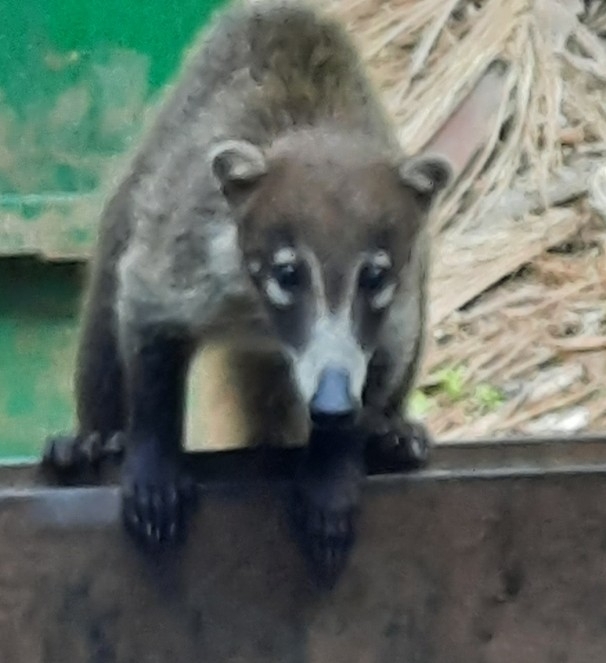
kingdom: Animalia
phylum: Chordata
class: Mammalia
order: Carnivora
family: Procyonidae
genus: Nasua
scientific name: Nasua narica
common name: White-nosed coati
